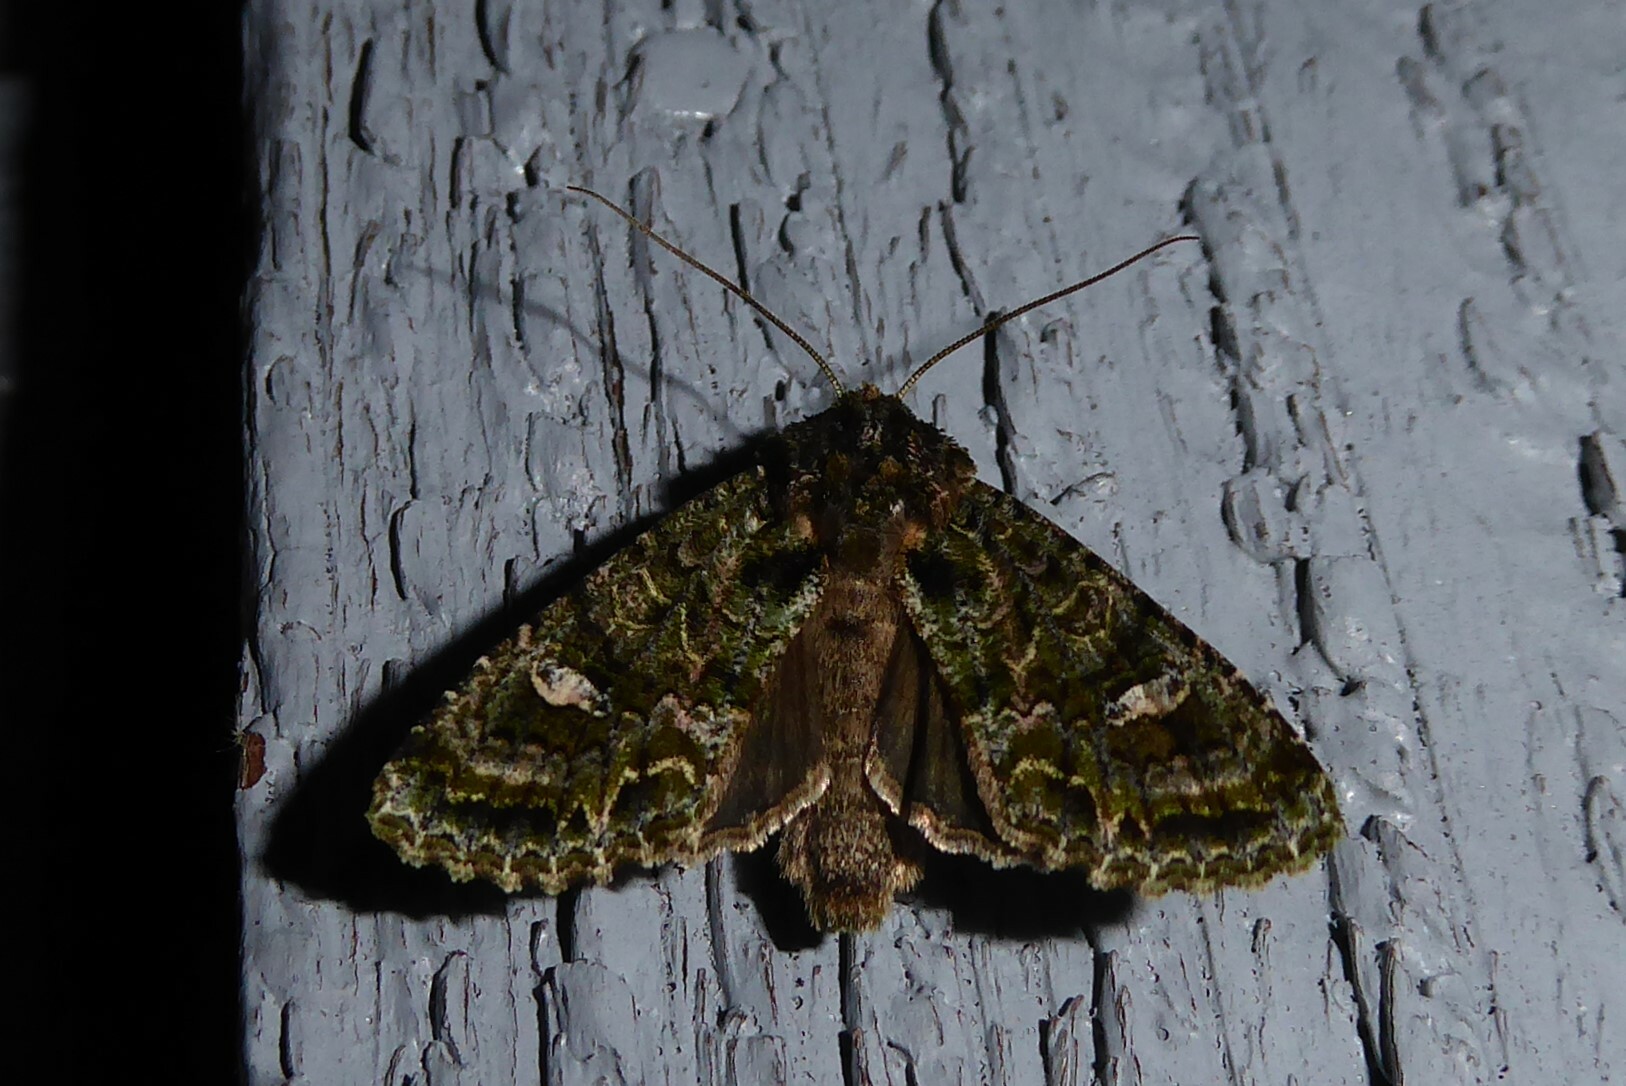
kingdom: Animalia
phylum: Arthropoda
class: Insecta
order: Lepidoptera
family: Noctuidae
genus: Ichneutica
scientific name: Ichneutica
